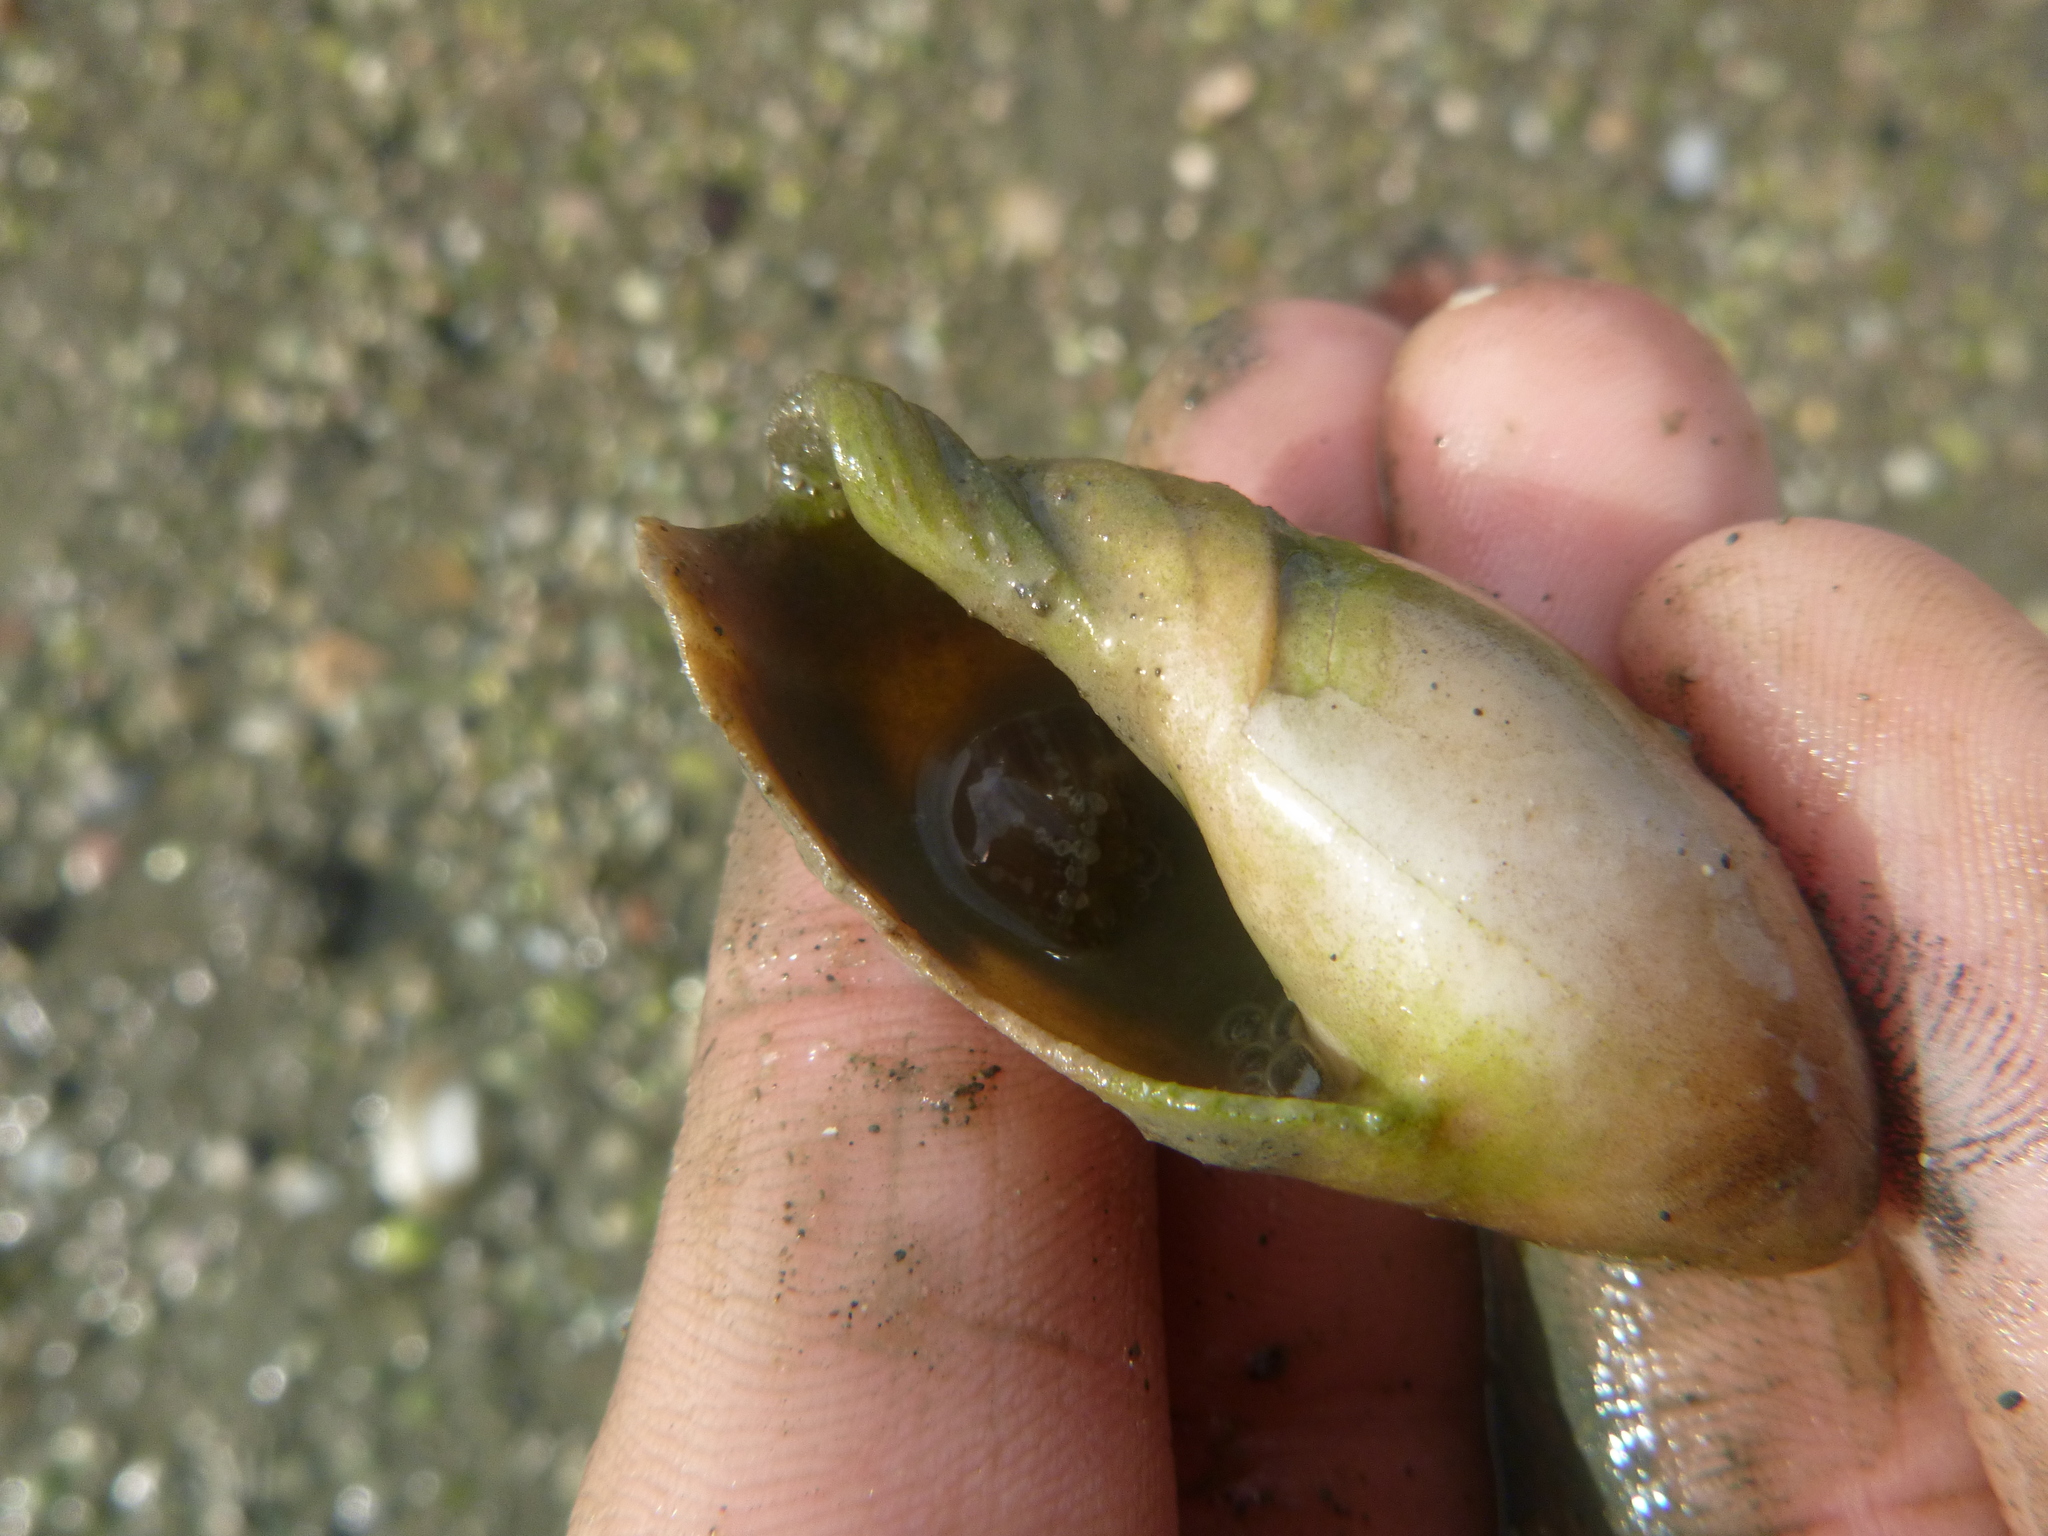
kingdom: Animalia
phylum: Cnidaria
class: Anthozoa
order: Actiniaria
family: Actiniidae
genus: Anthopleura
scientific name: Anthopleura hermaphroditica
